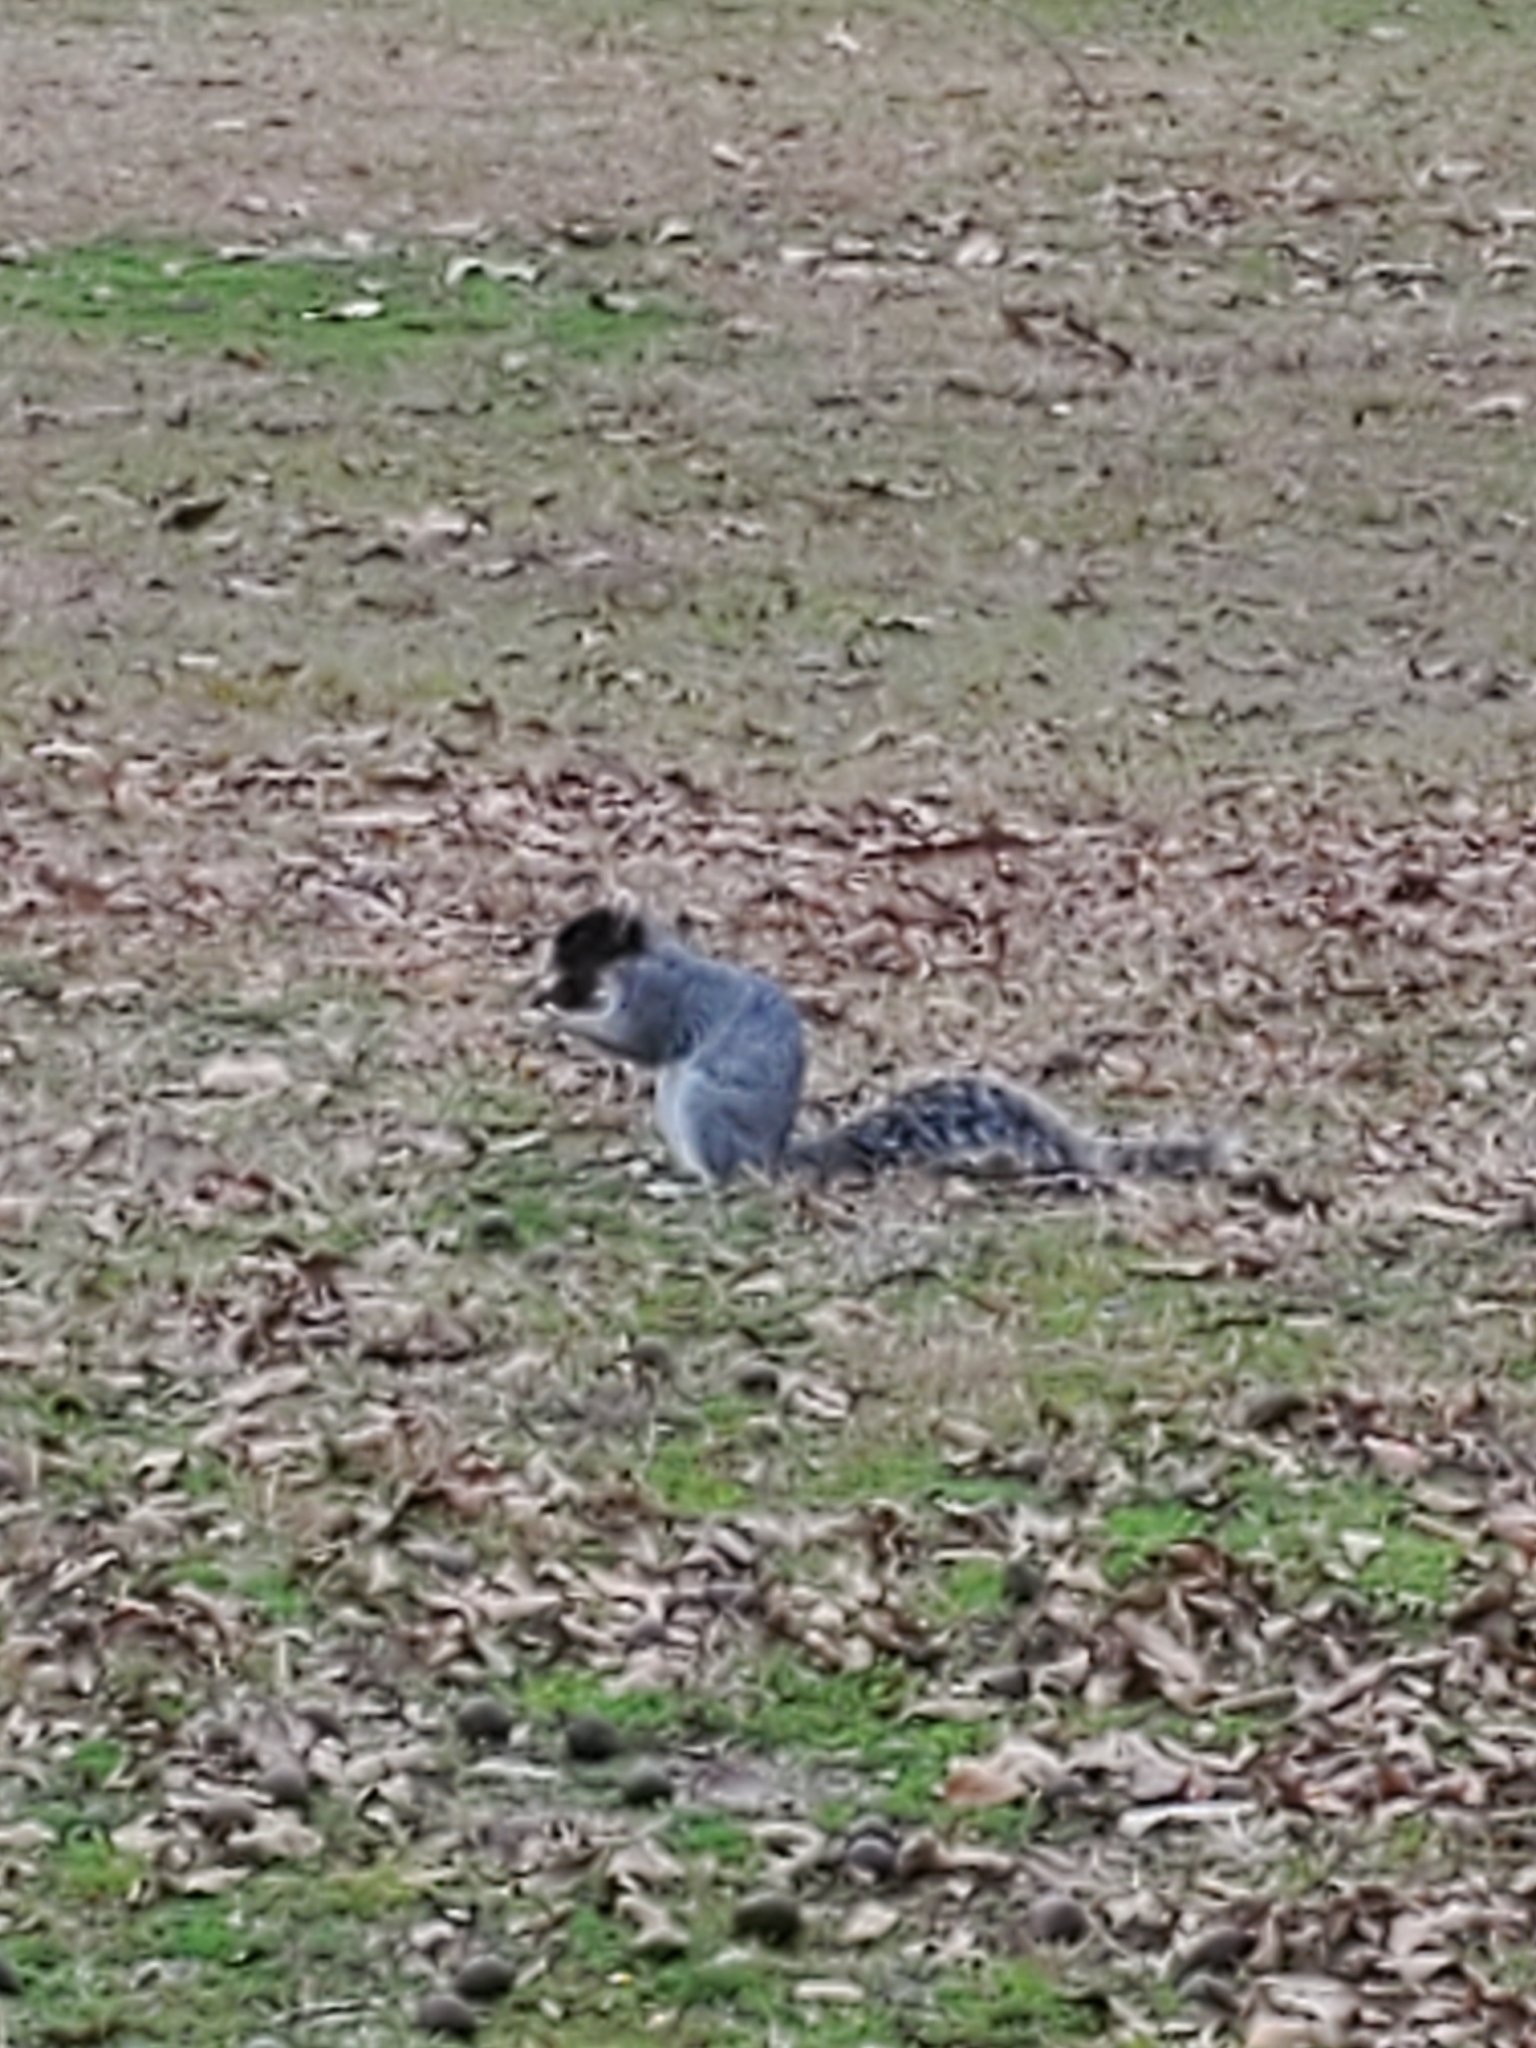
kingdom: Animalia
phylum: Chordata
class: Mammalia
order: Rodentia
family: Sciuridae
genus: Sciurus
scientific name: Sciurus niger
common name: Fox squirrel
